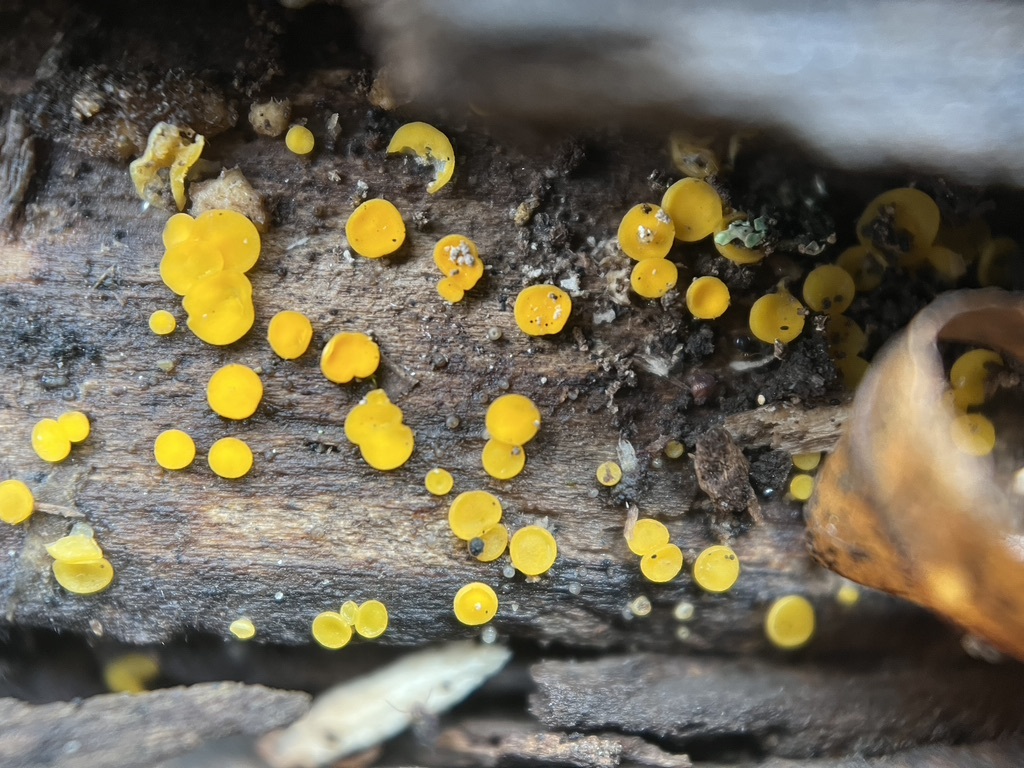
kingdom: Fungi
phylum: Ascomycota
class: Leotiomycetes
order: Helotiales
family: Pezizellaceae
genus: Calycina
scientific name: Calycina citrina
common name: Yellow fairy cups
